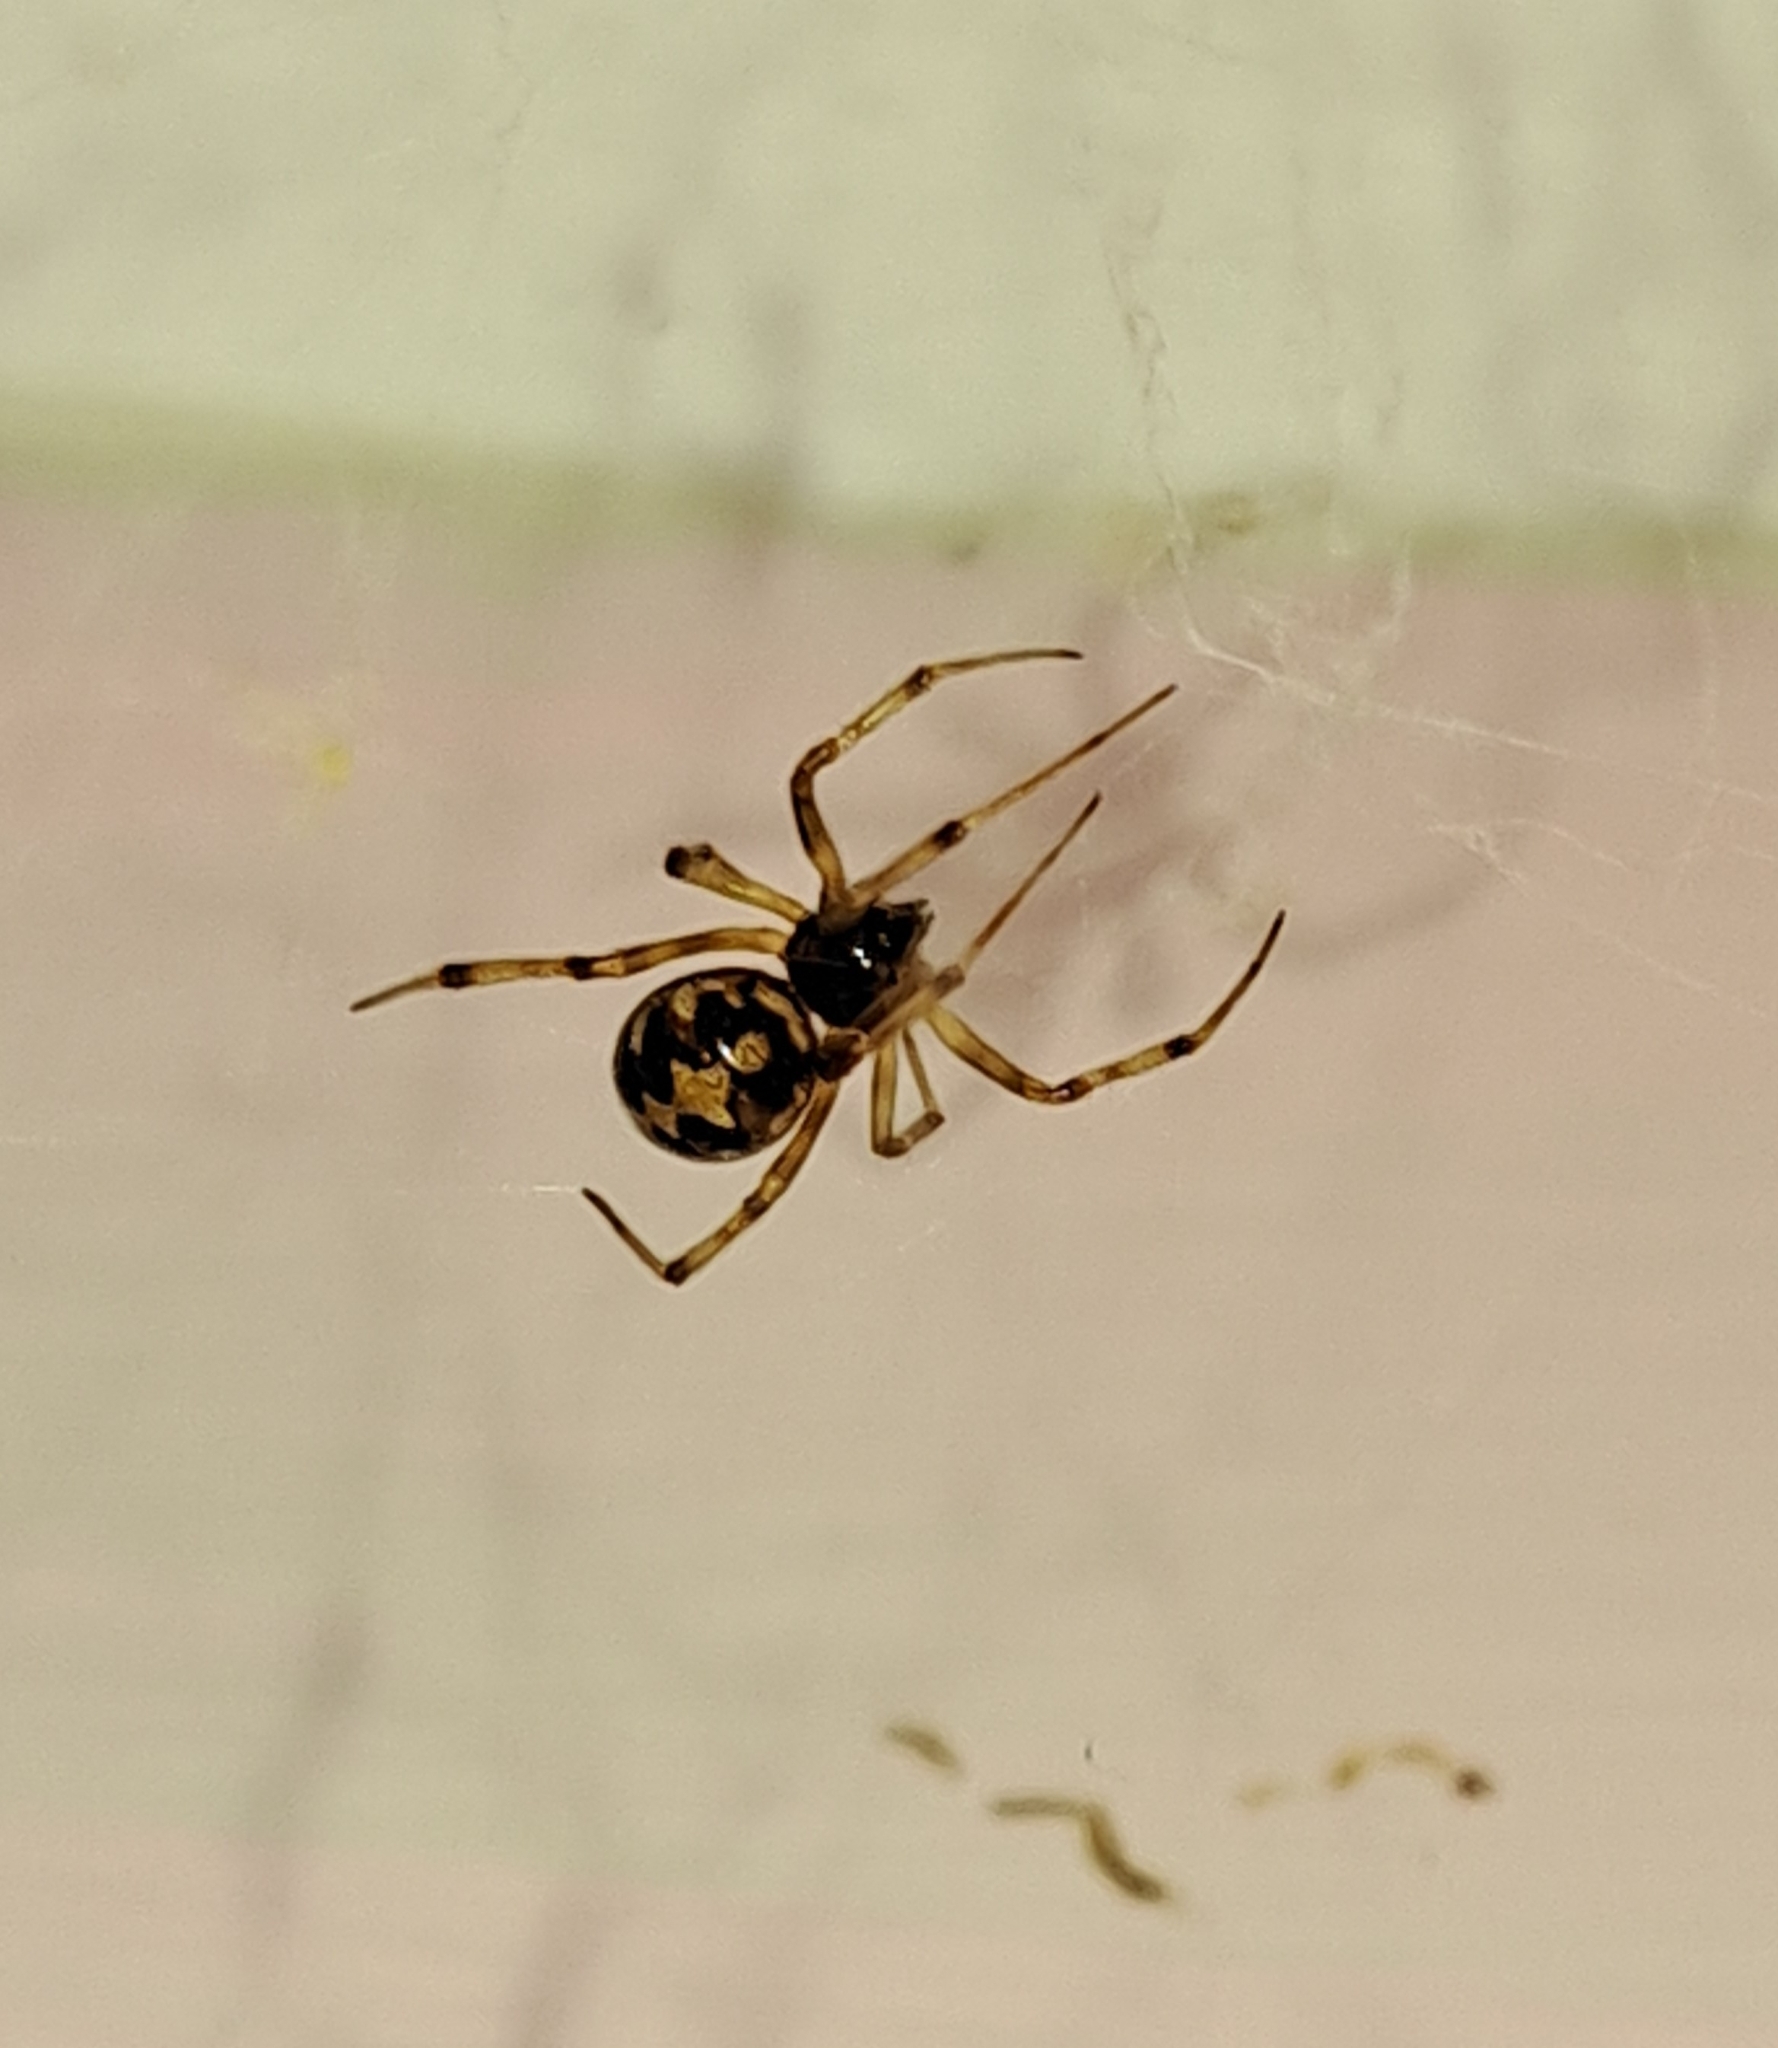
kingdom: Animalia
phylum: Arthropoda
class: Arachnida
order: Araneae
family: Theridiidae
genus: Steatoda
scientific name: Steatoda triangulosa
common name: Triangulate bud spider
